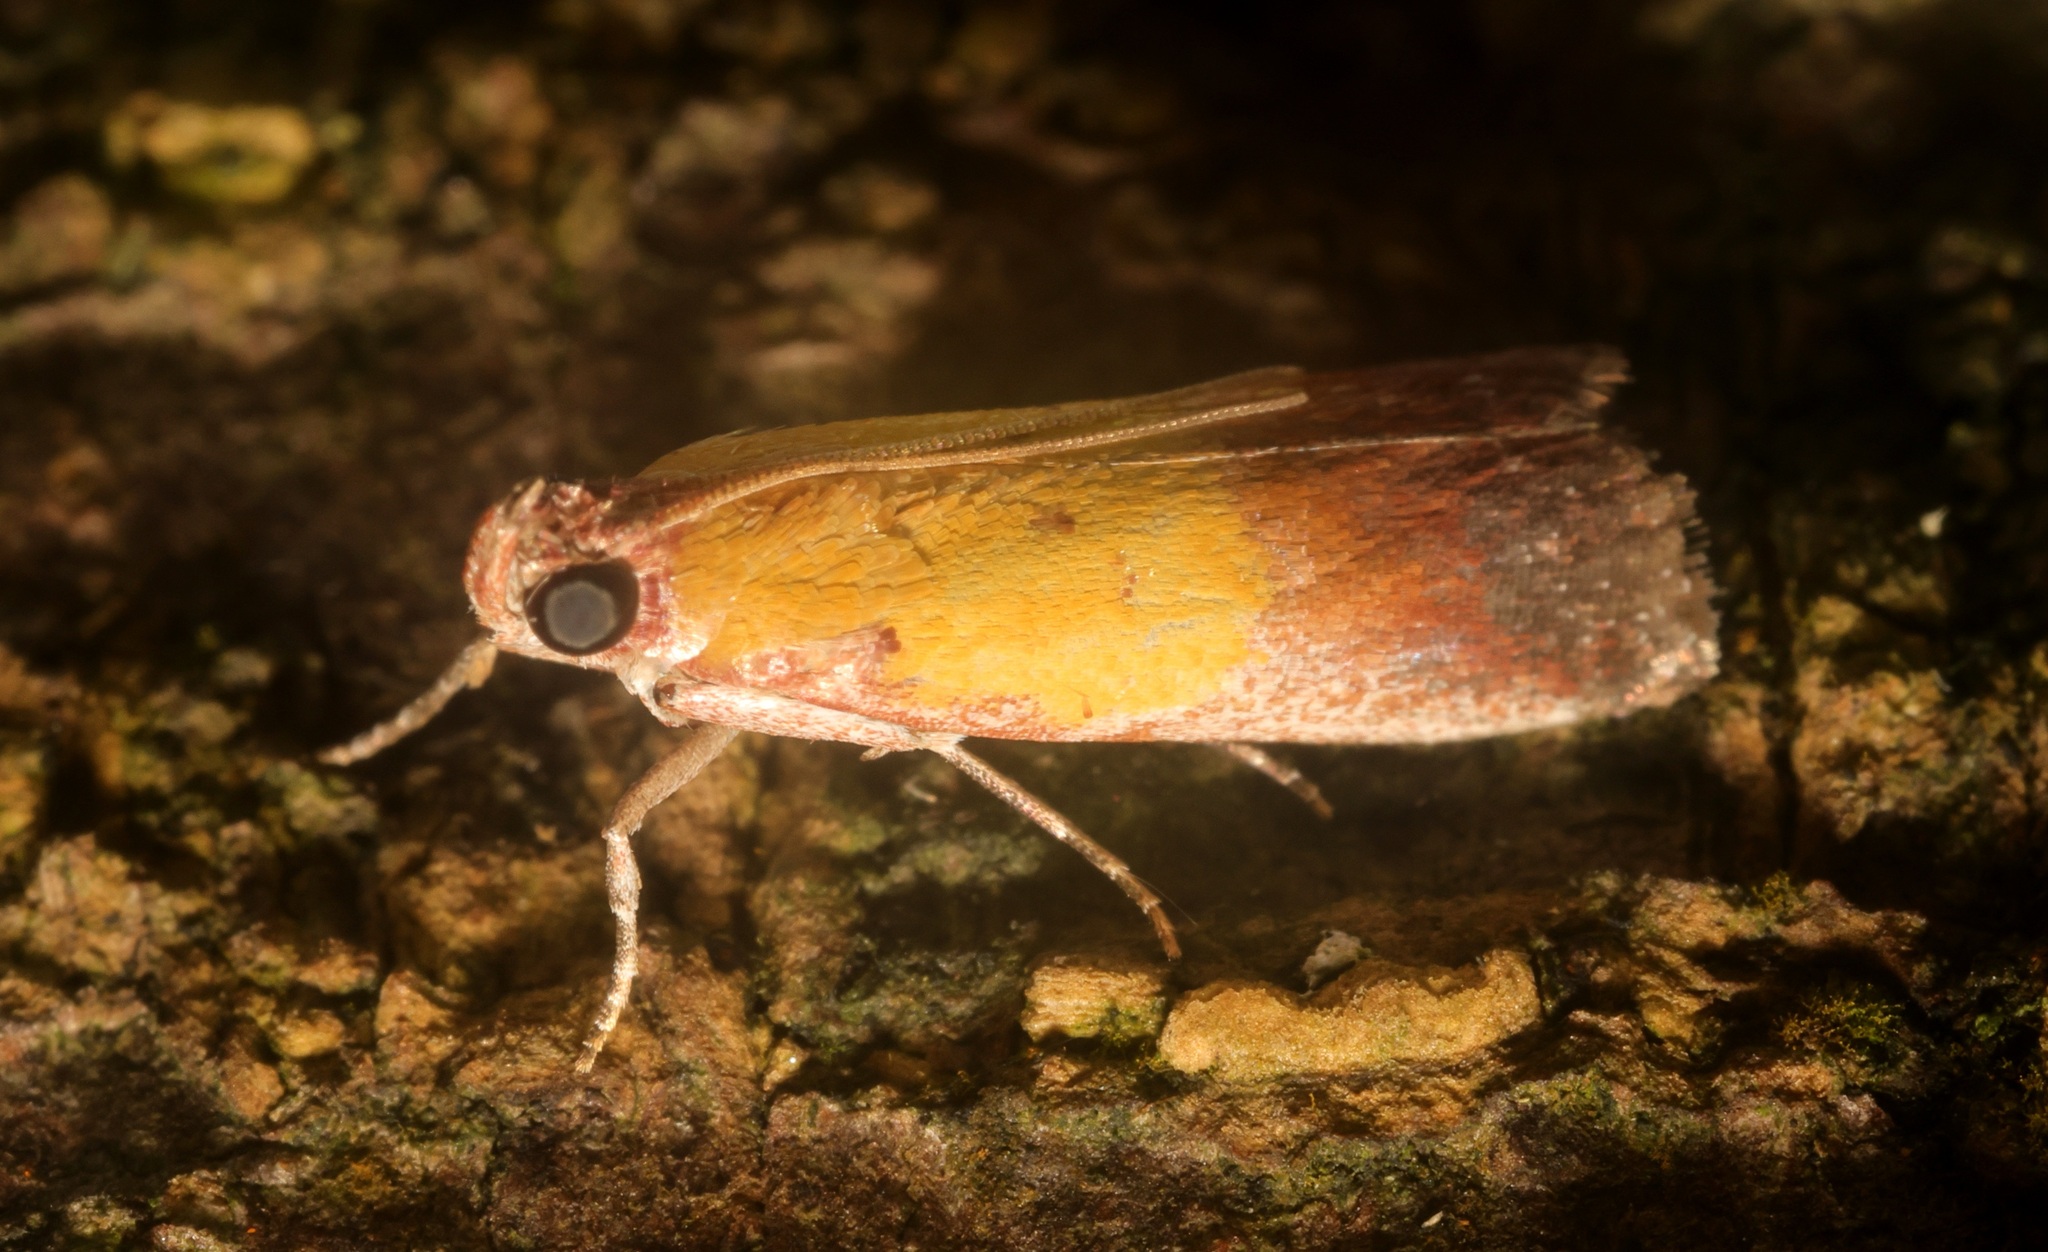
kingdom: Animalia
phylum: Arthropoda
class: Insecta
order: Lepidoptera
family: Pyralidae
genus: Piesmopoda
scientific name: Piesmopoda
